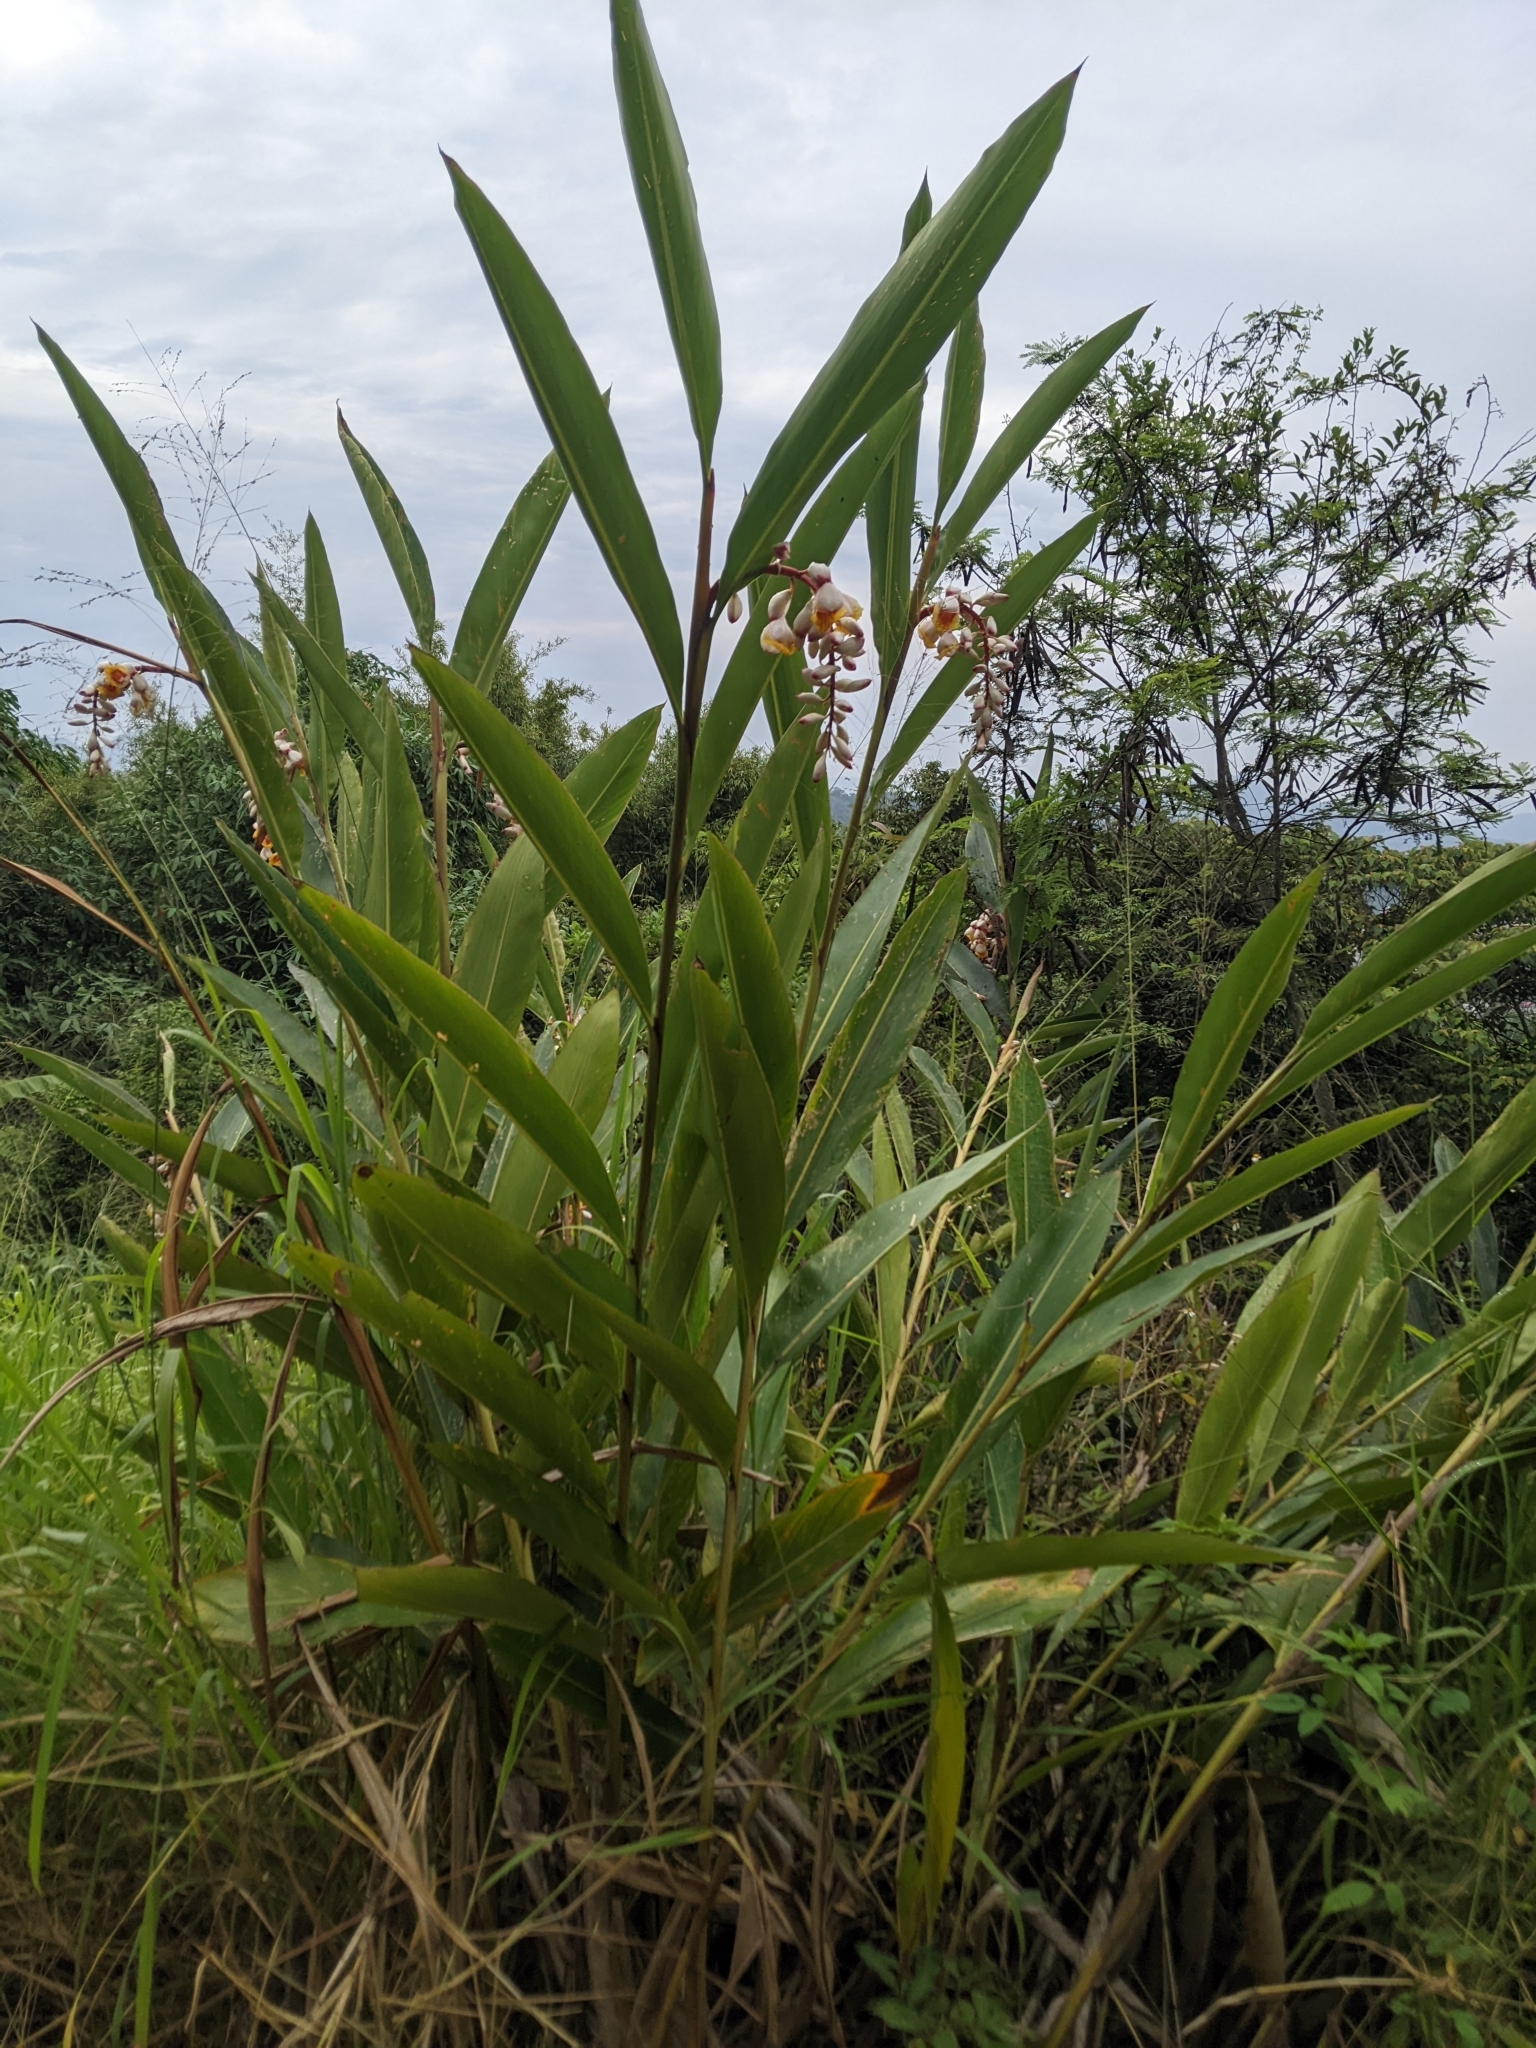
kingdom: Plantae
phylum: Tracheophyta
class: Liliopsida
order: Zingiberales
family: Zingiberaceae
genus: Alpinia
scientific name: Alpinia zerumbet
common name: Shellplant
